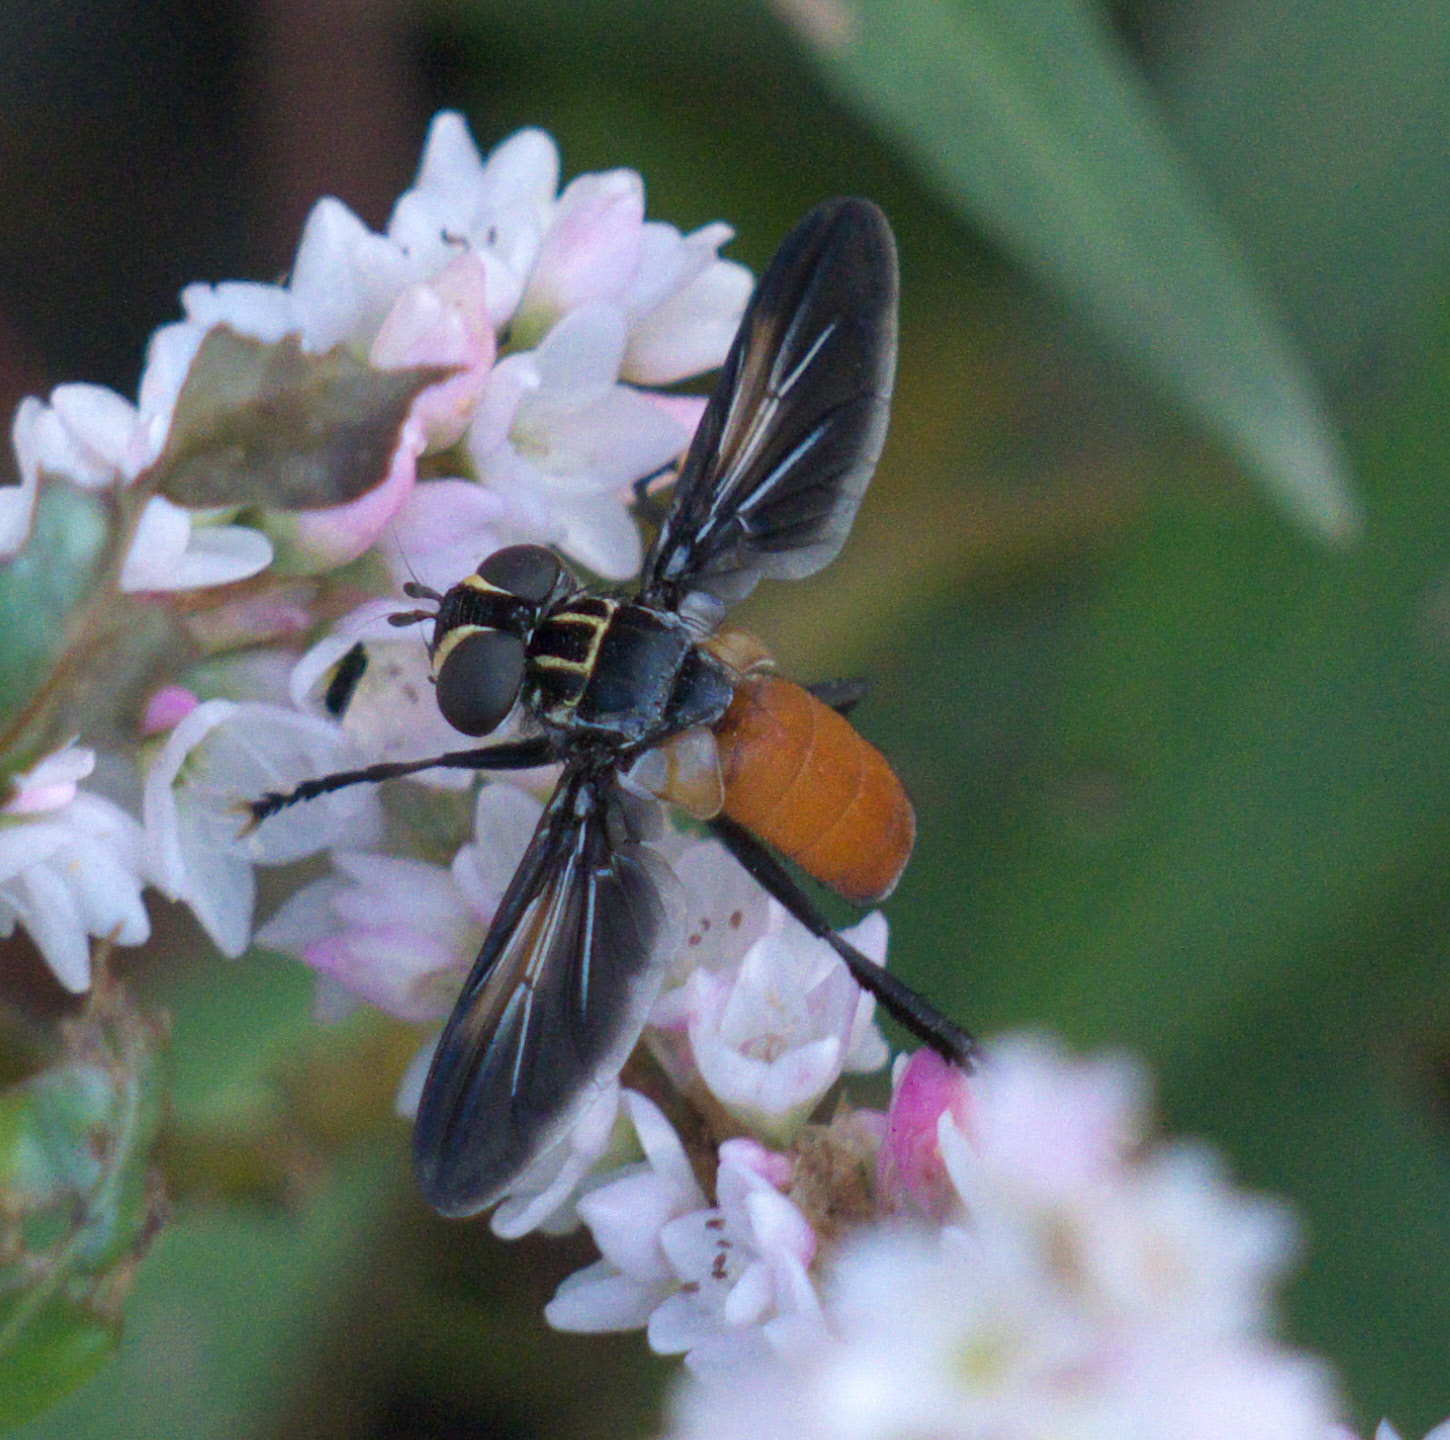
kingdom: Animalia
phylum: Arthropoda
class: Insecta
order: Diptera
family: Tachinidae
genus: Trichopoda
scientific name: Trichopoda pennipes
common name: Tachinid fly
